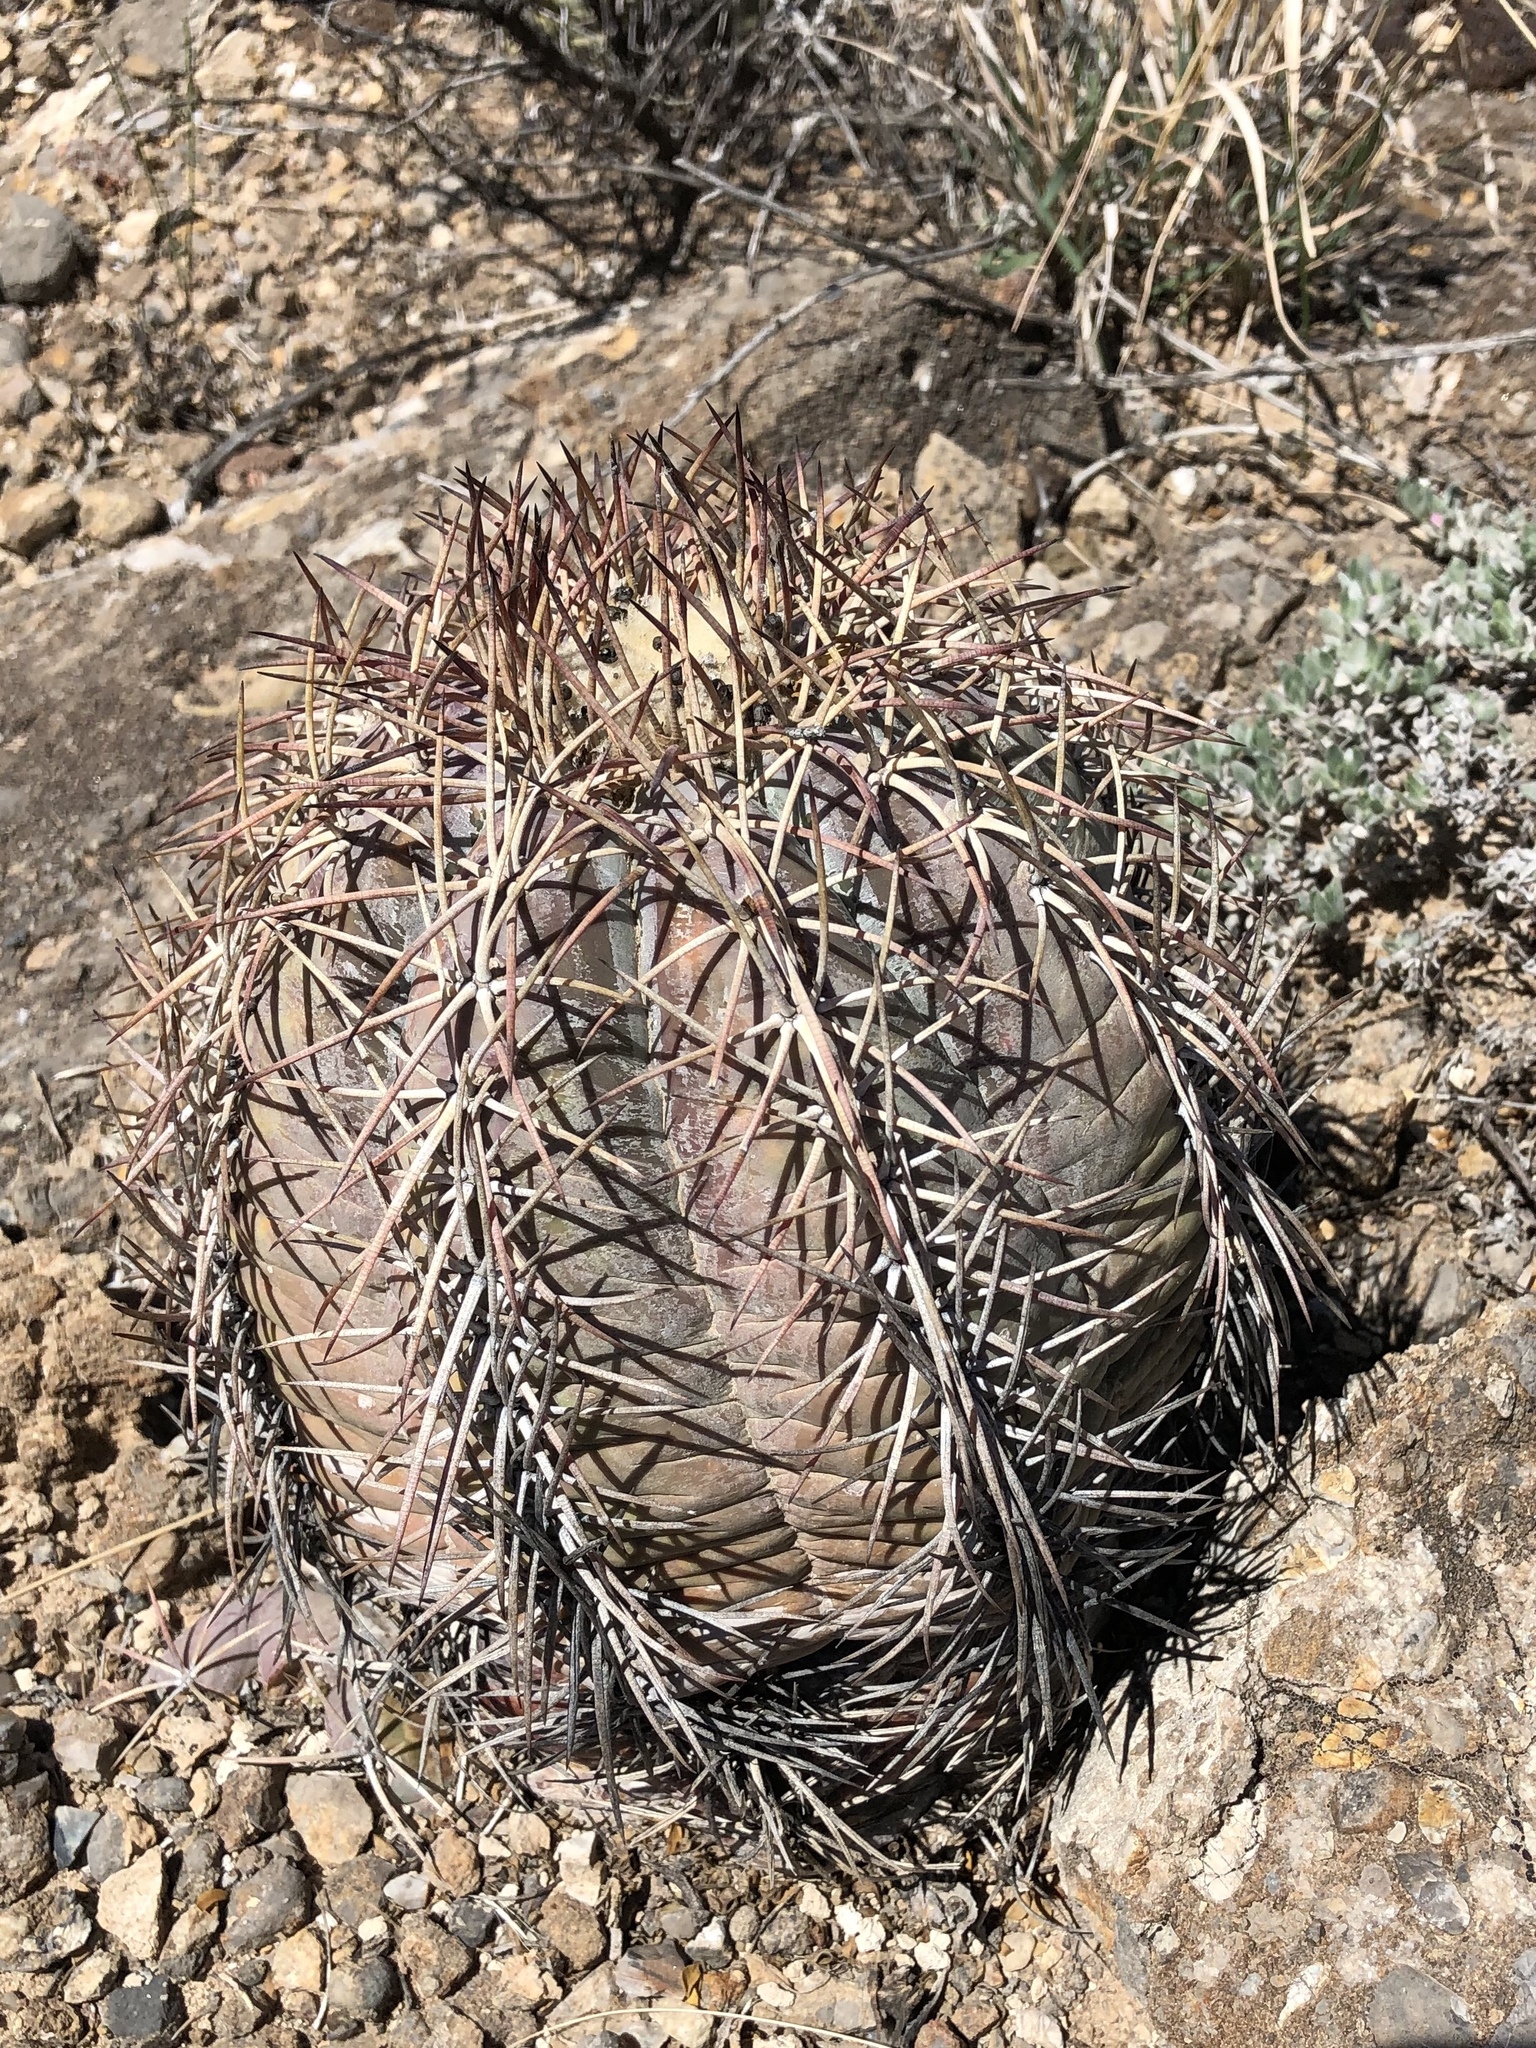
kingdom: Plantae
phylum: Tracheophyta
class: Magnoliopsida
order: Caryophyllales
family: Cactaceae
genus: Echinocactus
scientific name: Echinocactus horizonthalonius
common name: Devilshead
